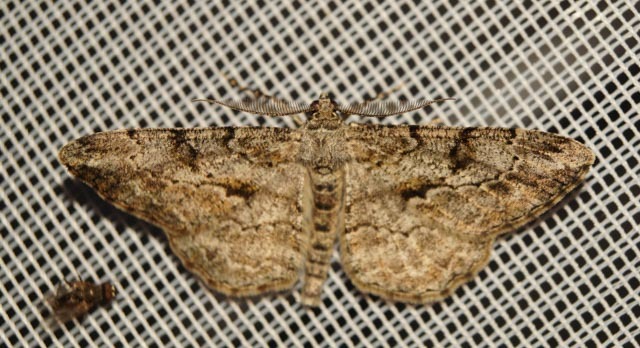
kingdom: Animalia
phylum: Arthropoda
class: Insecta
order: Lepidoptera
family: Geometridae
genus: Peribatodes
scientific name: Peribatodes rhomboidaria
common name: Willow beauty
